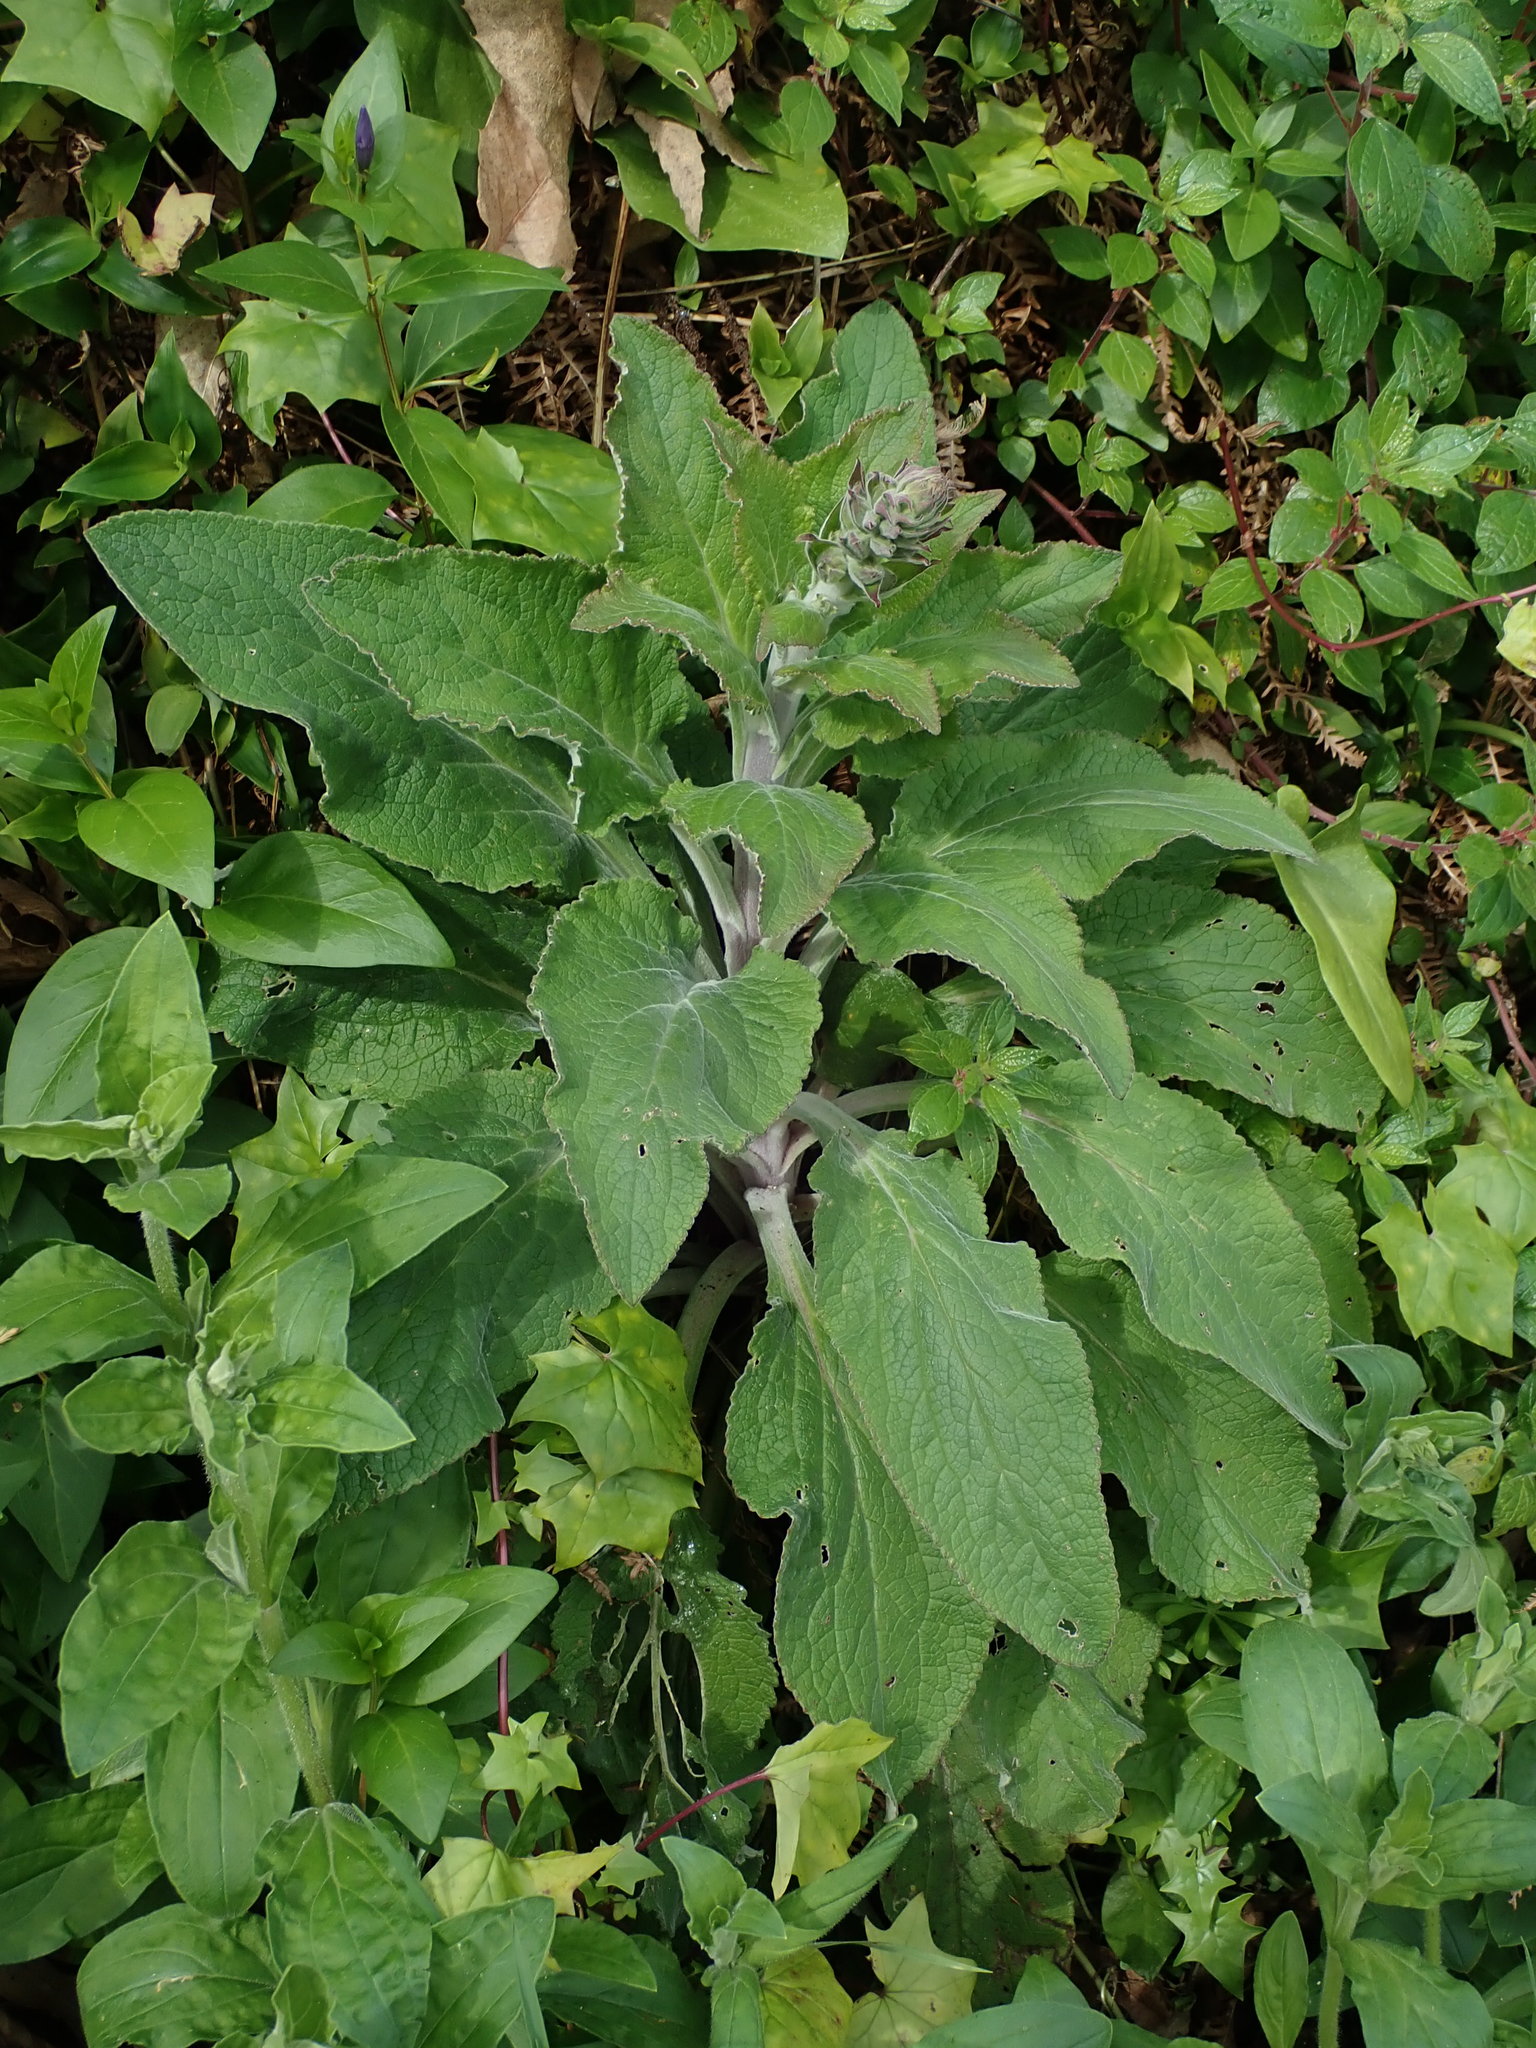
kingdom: Plantae
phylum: Tracheophyta
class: Magnoliopsida
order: Lamiales
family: Plantaginaceae
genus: Digitalis
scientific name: Digitalis purpurea
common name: Foxglove
